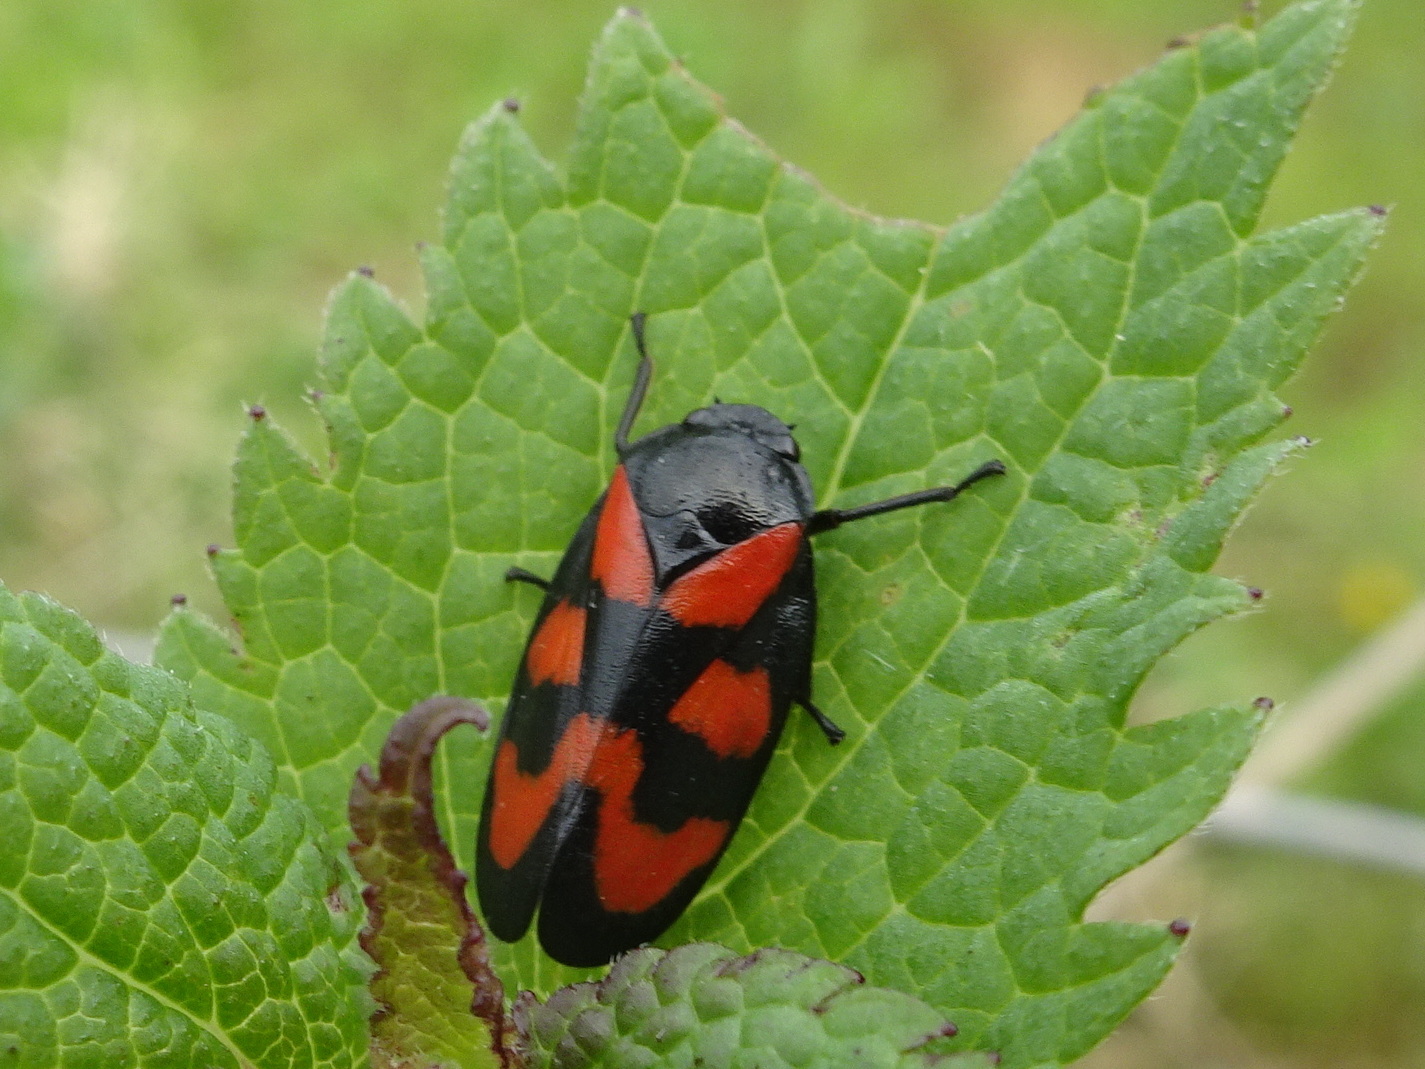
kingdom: Animalia
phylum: Arthropoda
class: Insecta
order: Hemiptera
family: Cercopidae
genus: Cercopis
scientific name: Cercopis vulnerata
